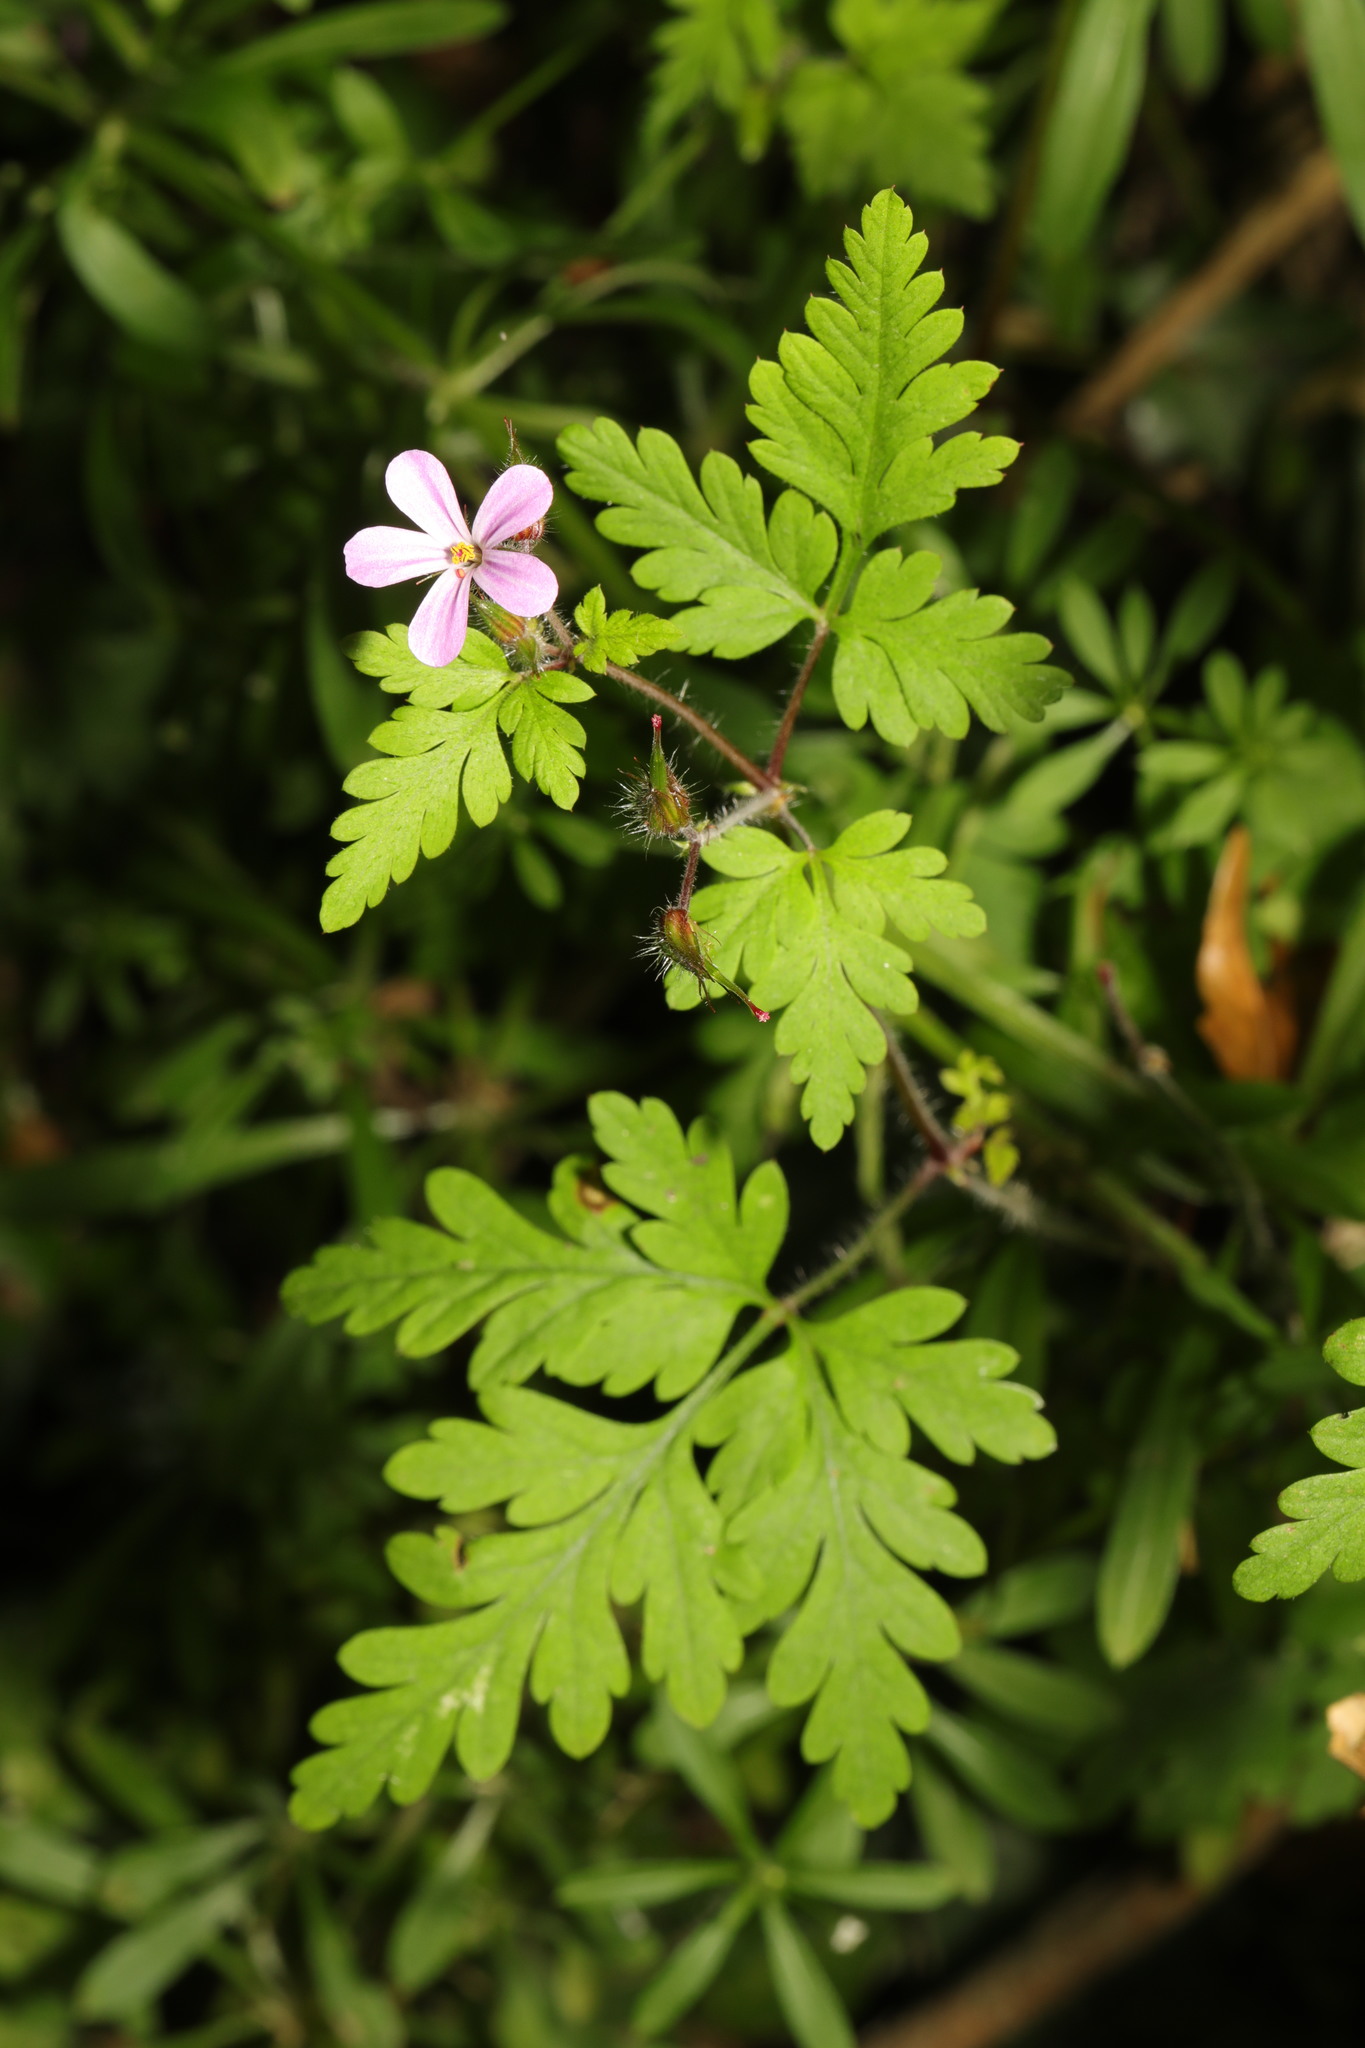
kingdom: Plantae
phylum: Tracheophyta
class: Magnoliopsida
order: Geraniales
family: Geraniaceae
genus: Geranium
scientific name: Geranium robertianum
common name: Herb-robert
